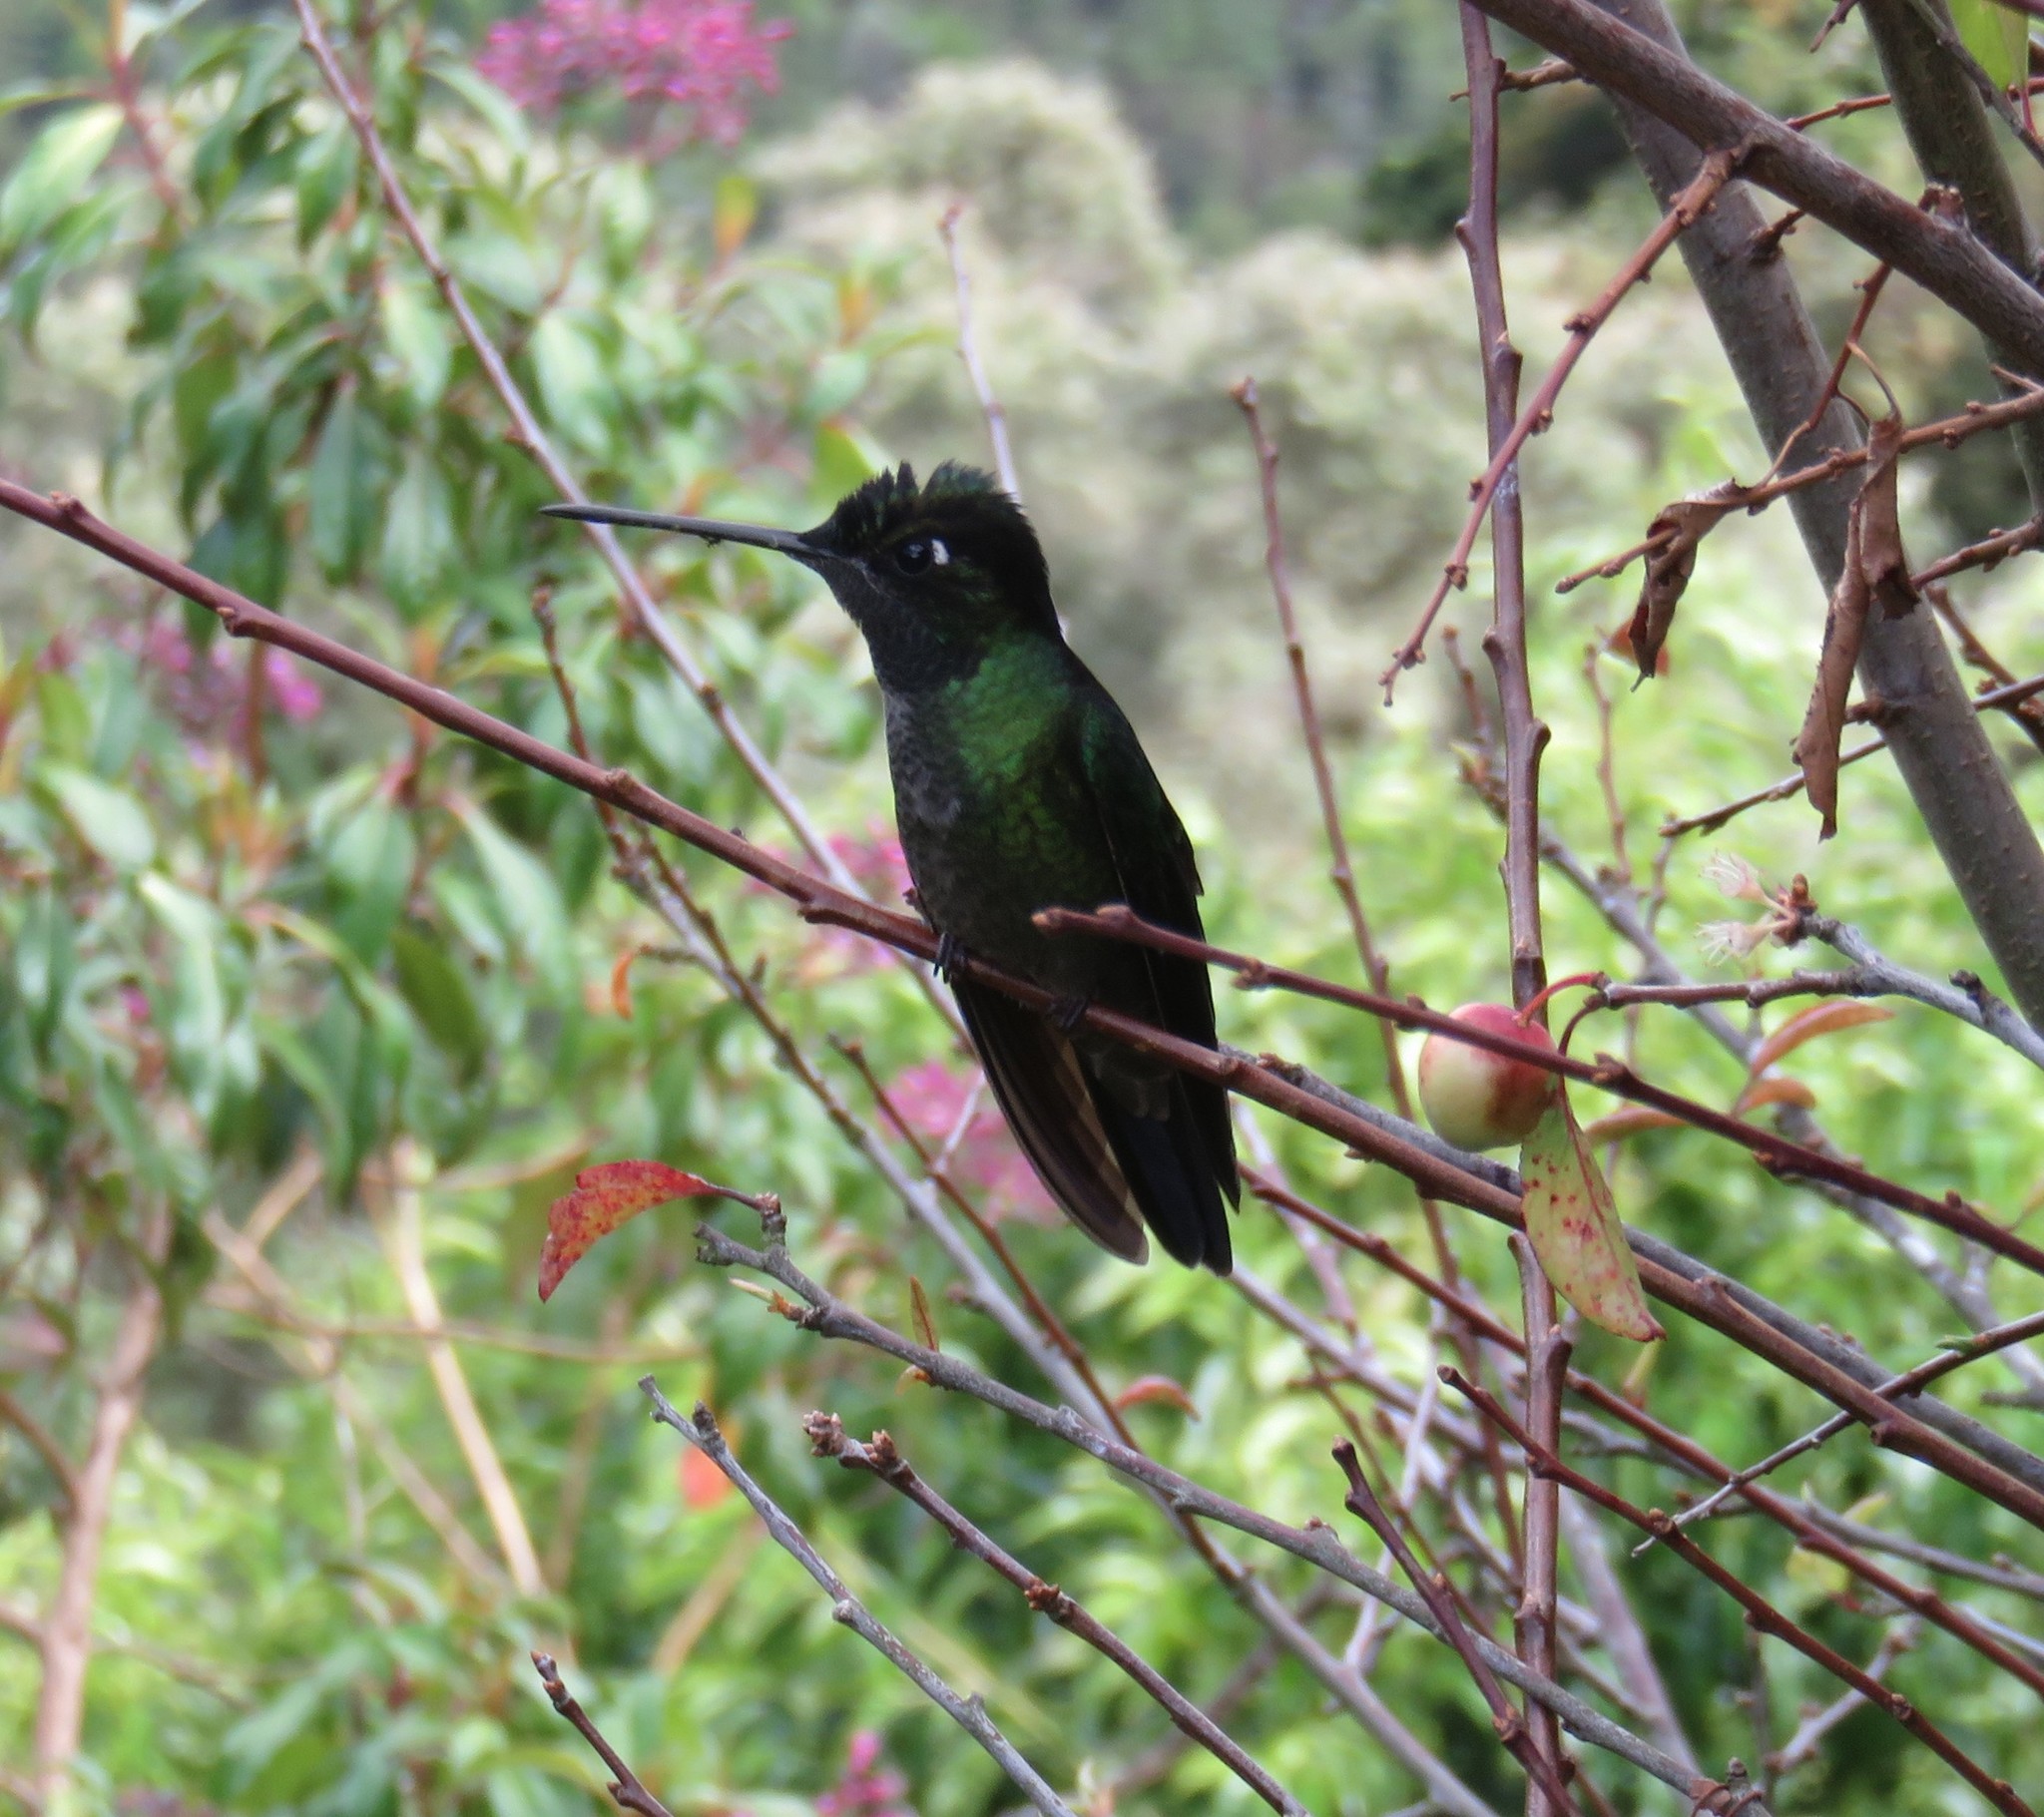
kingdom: Animalia
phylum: Chordata
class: Aves
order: Apodiformes
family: Trochilidae
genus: Eugenes
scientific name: Eugenes spectabilis
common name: Talamanca hummingbird
